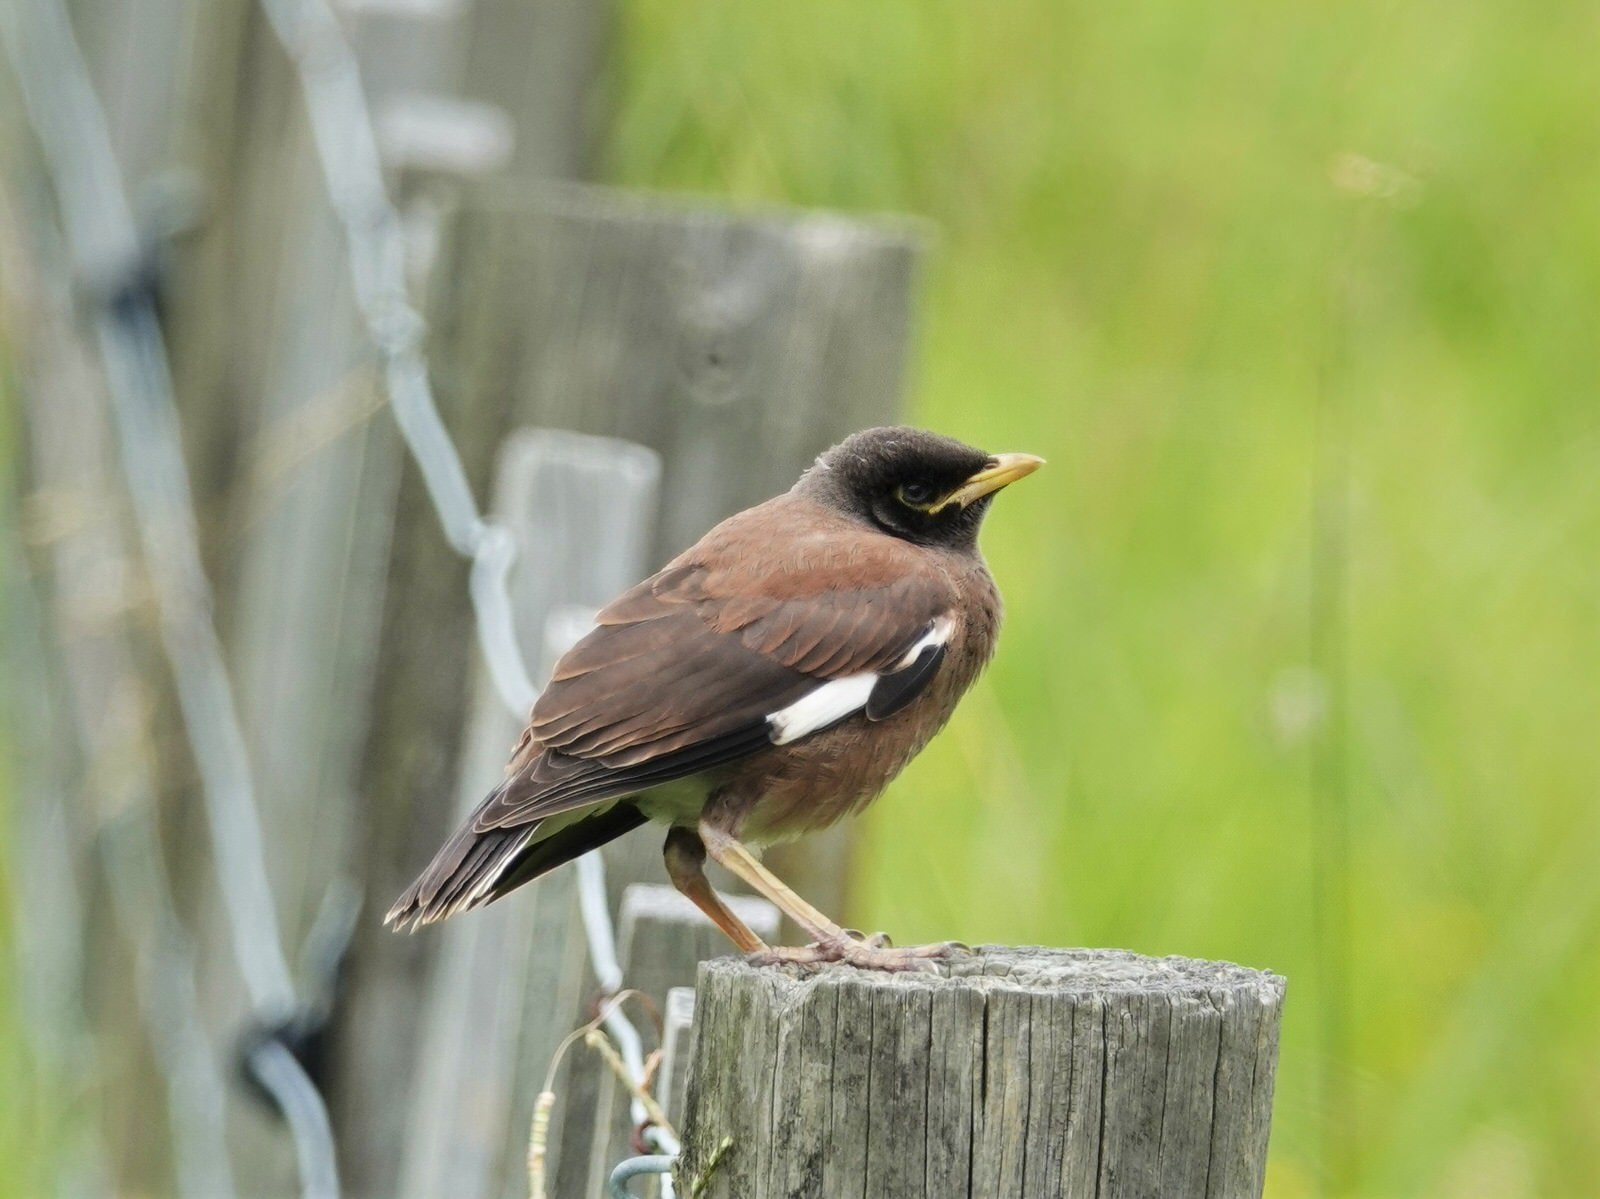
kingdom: Animalia
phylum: Chordata
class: Aves
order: Passeriformes
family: Sturnidae
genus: Acridotheres
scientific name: Acridotheres tristis
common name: Common myna
